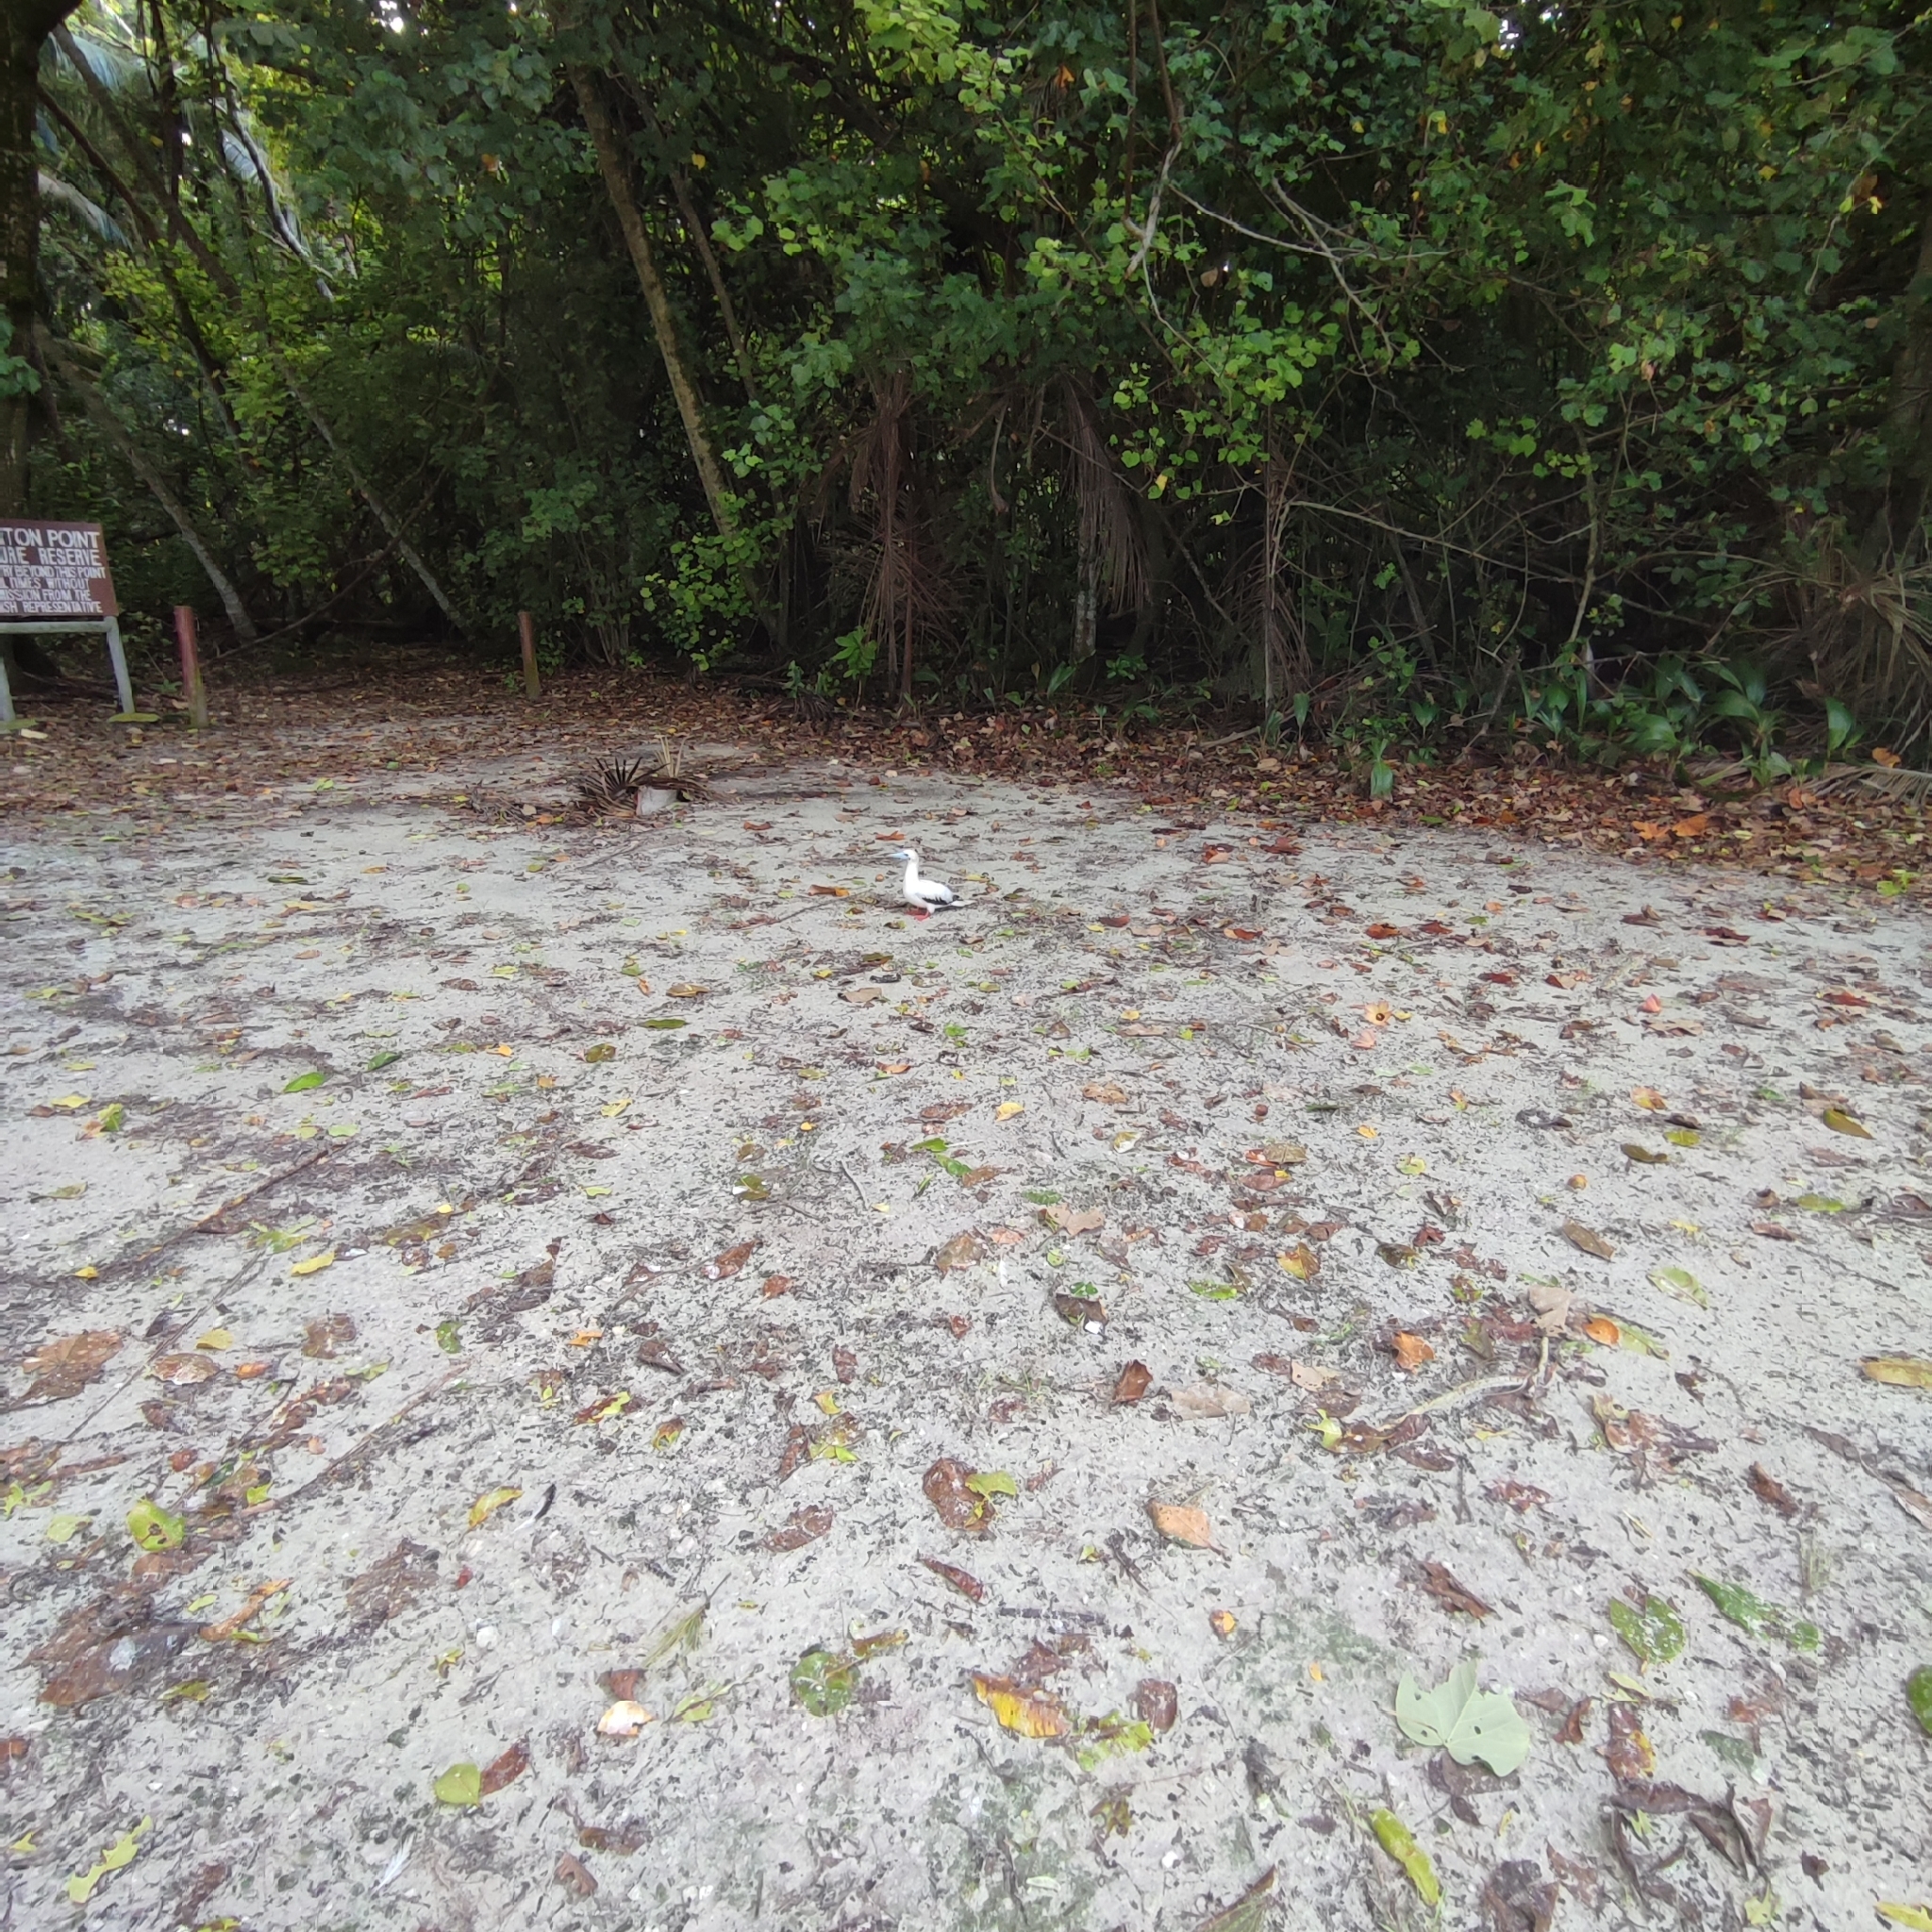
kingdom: Animalia
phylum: Chordata
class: Aves
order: Suliformes
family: Sulidae
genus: Sula
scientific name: Sula sula
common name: Red-footed booby
